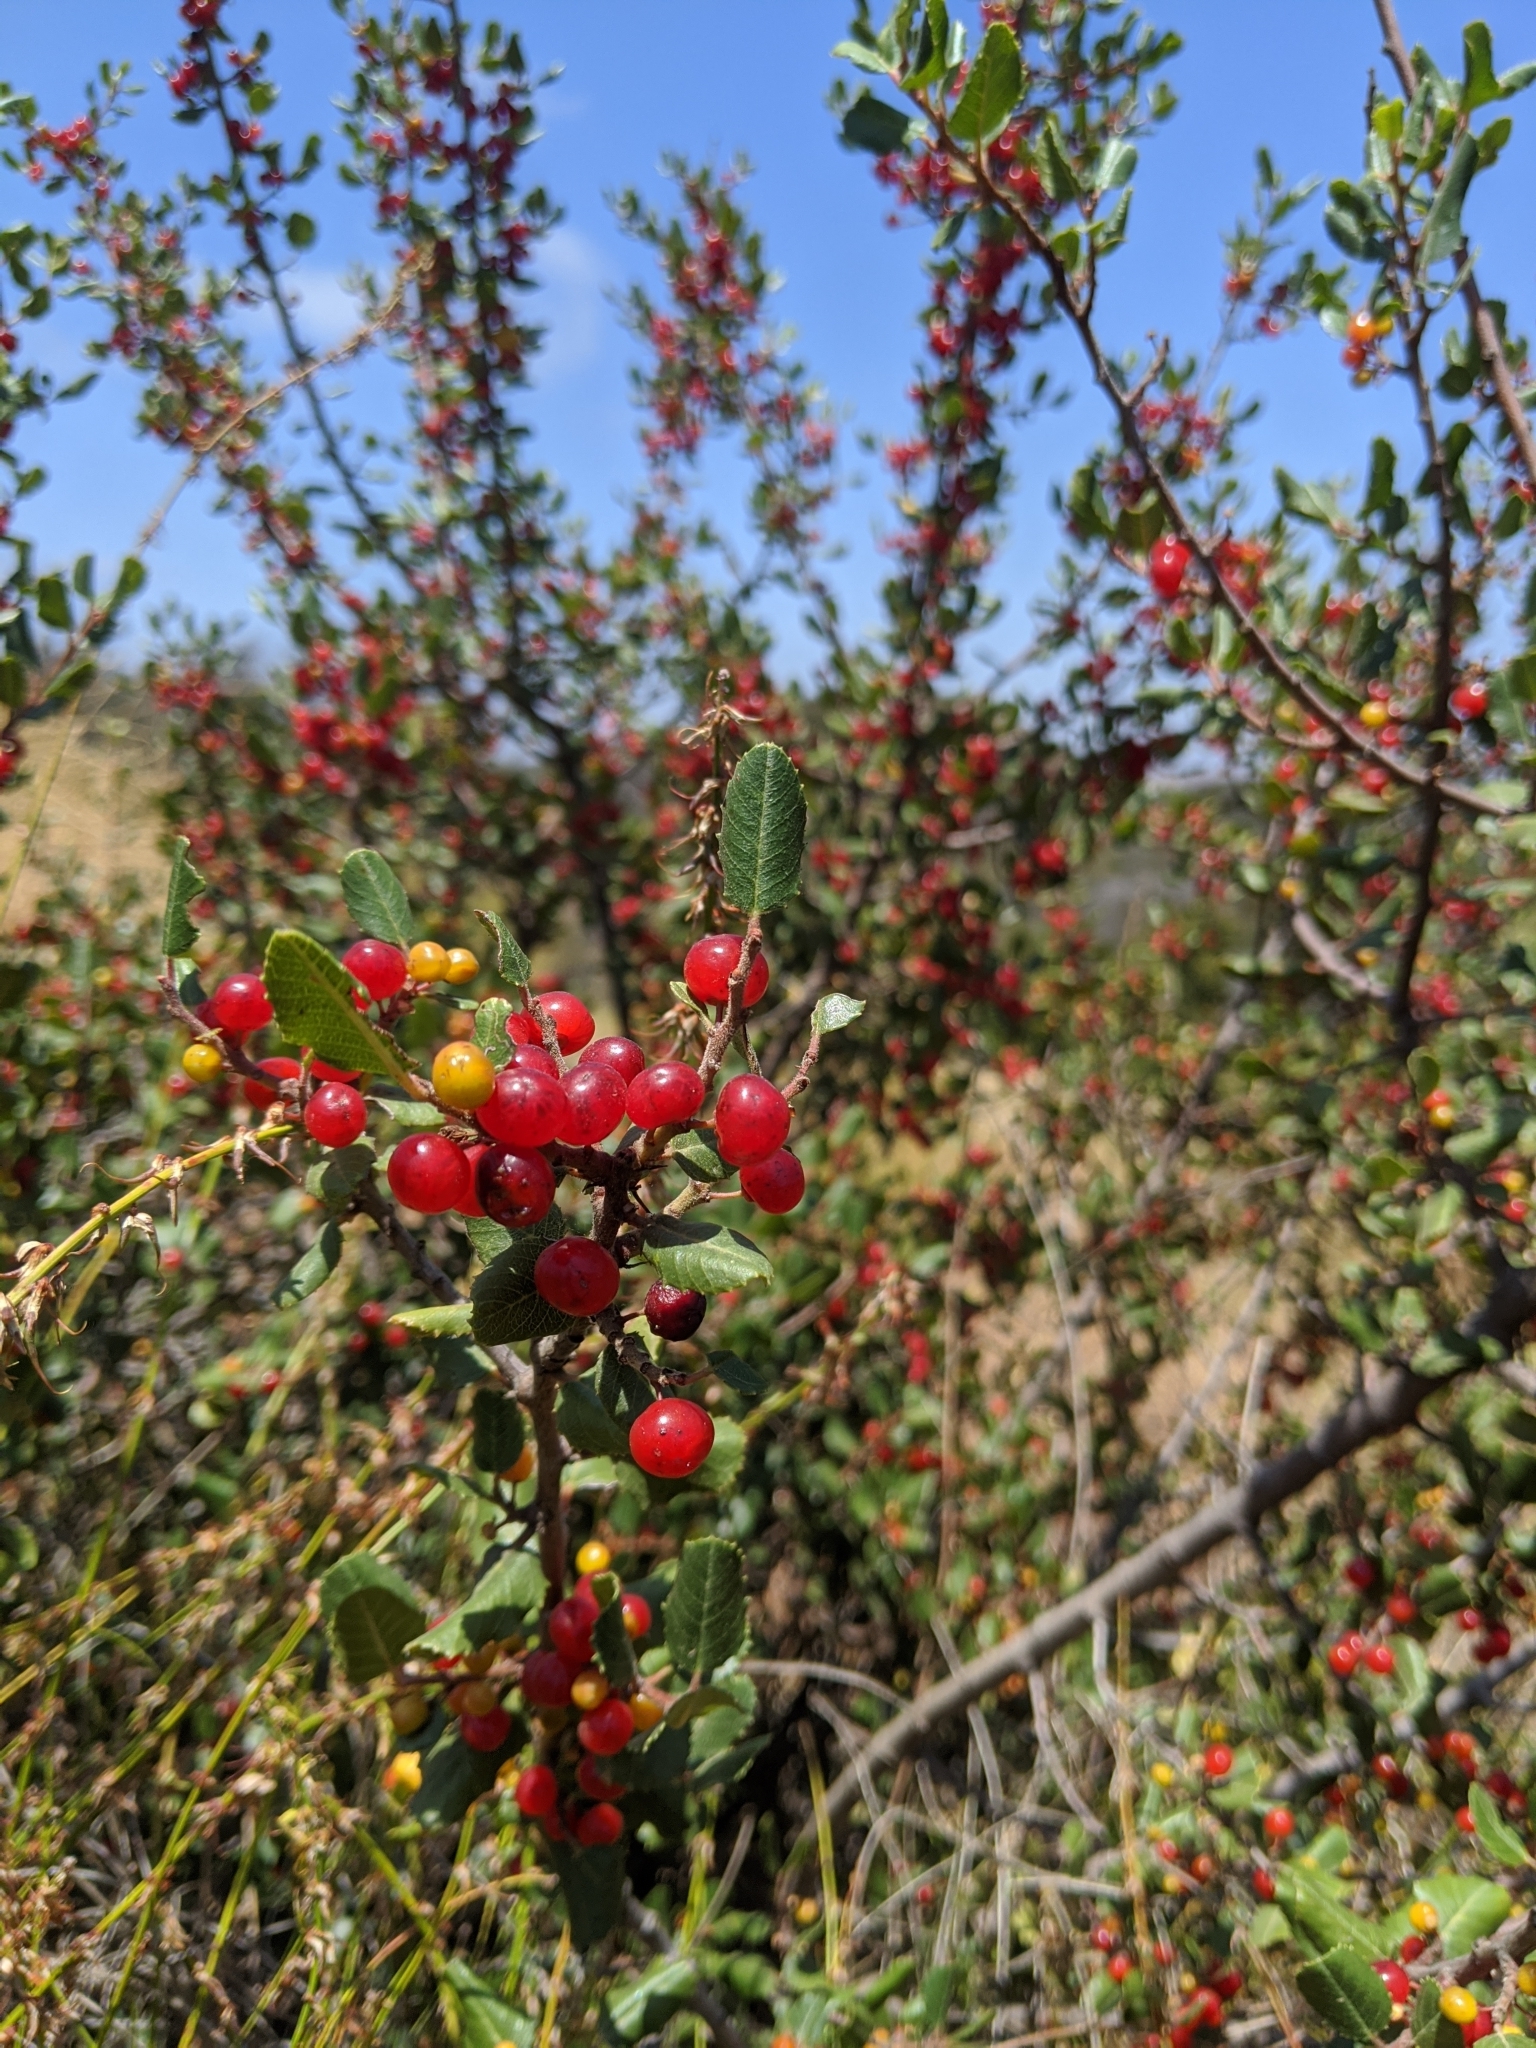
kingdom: Plantae
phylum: Tracheophyta
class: Magnoliopsida
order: Rosales
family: Rhamnaceae
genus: Endotropis
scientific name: Endotropis crocea
